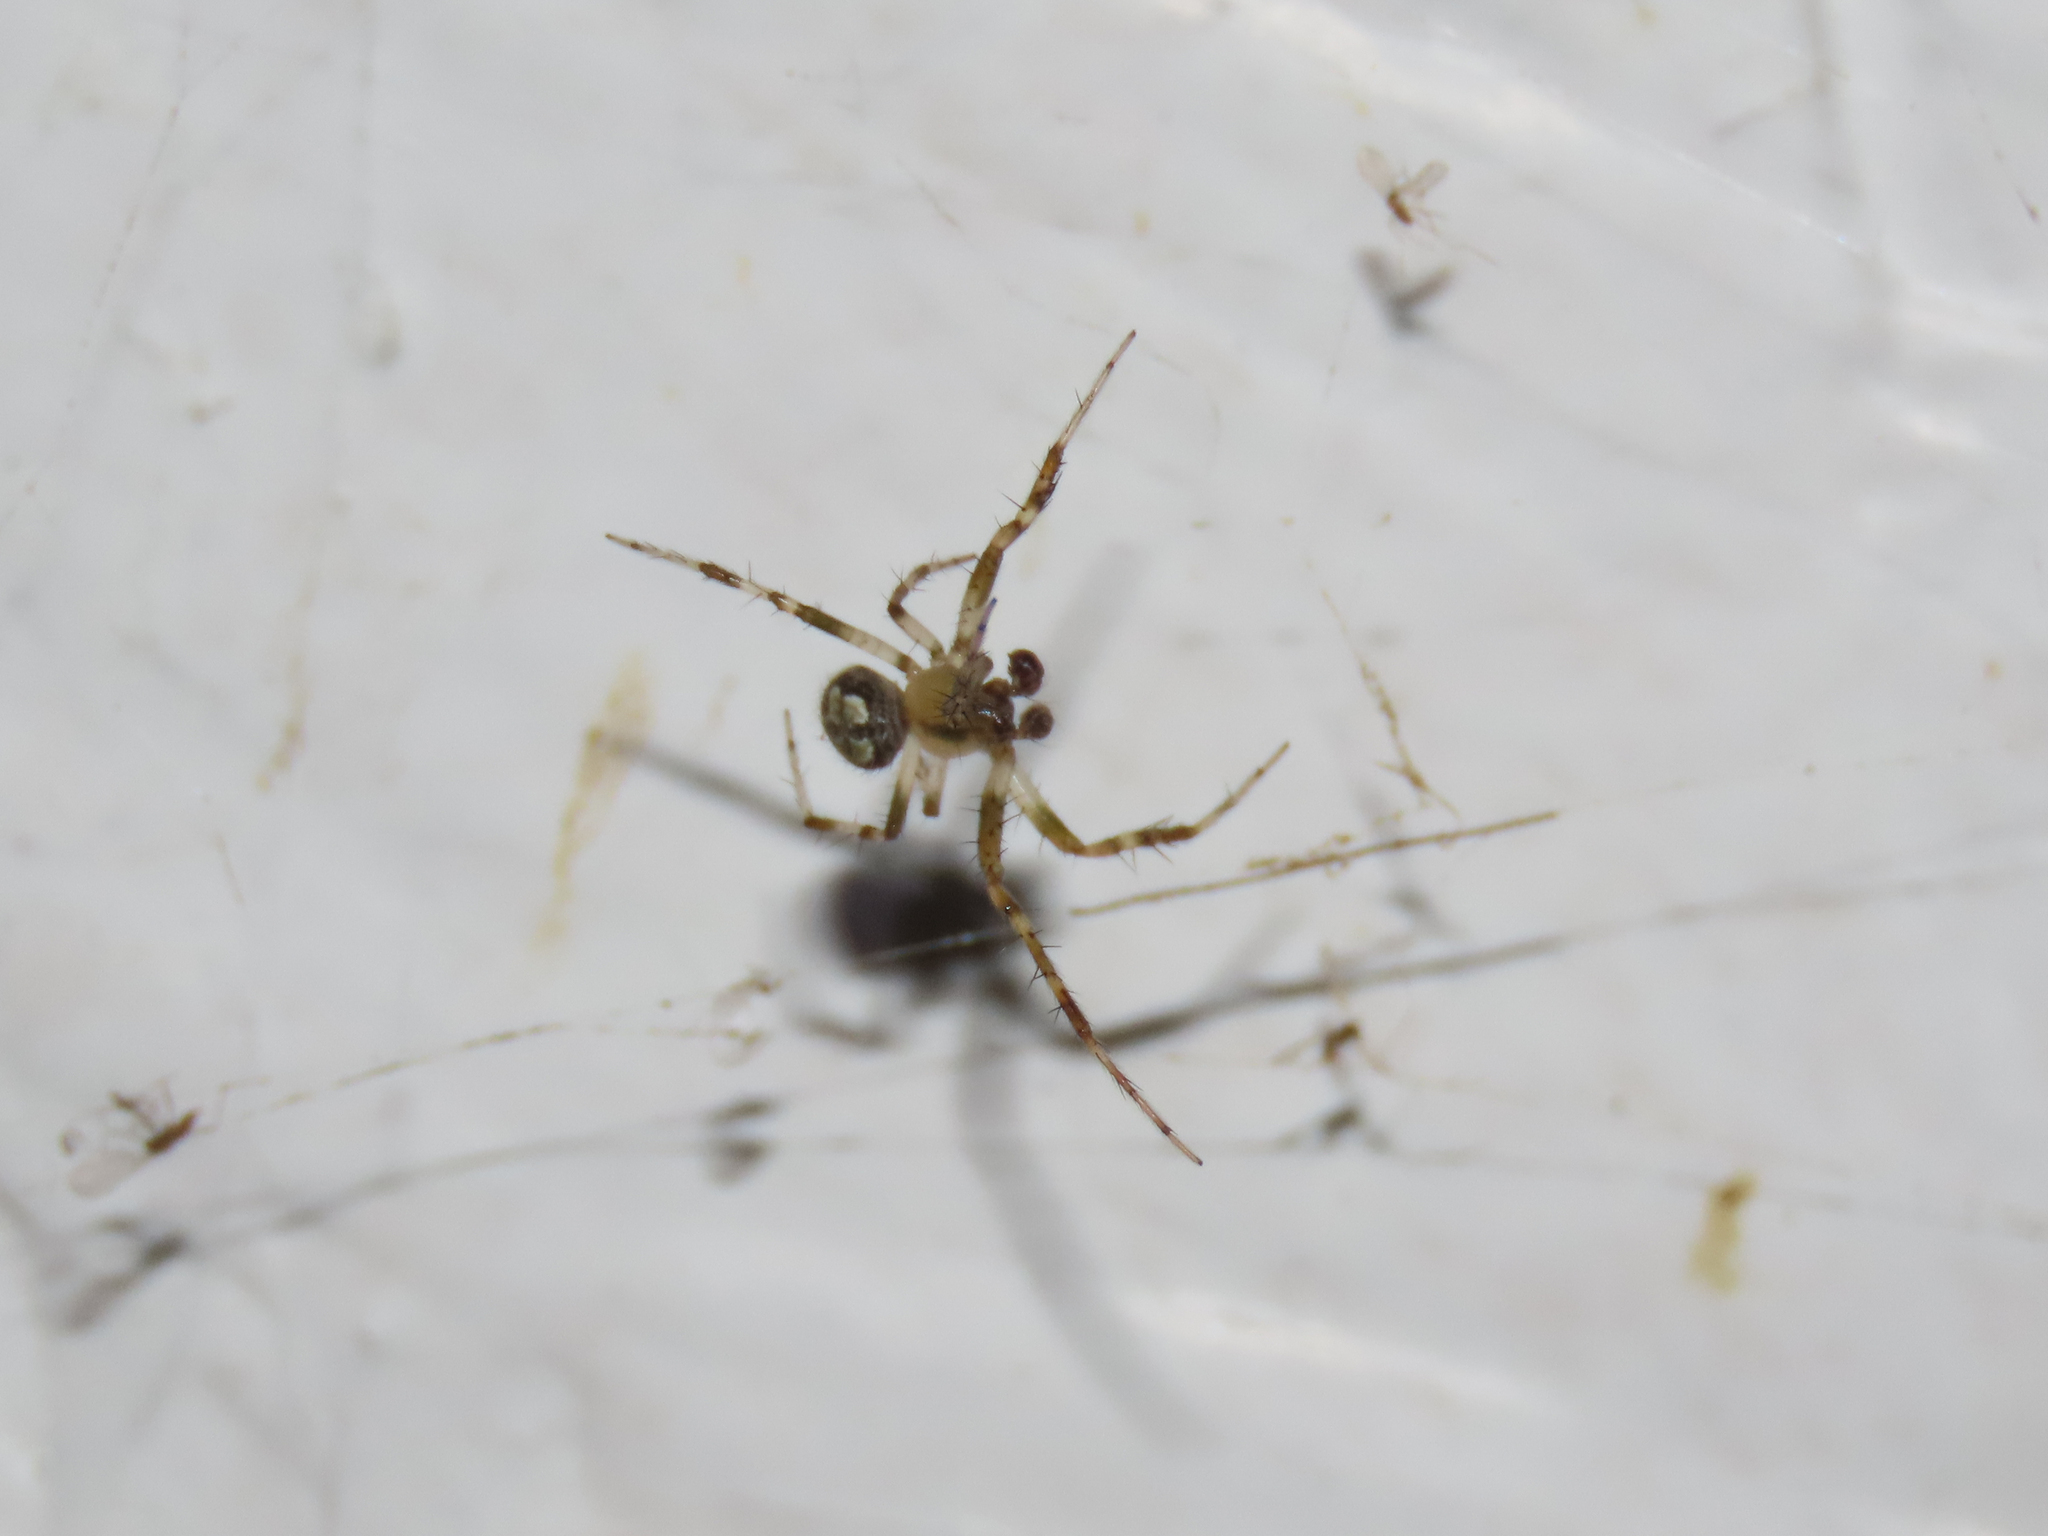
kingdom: Animalia
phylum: Arthropoda
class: Arachnida
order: Araneae
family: Araneidae
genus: Araneus
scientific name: Araneus pegnia
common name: Orb weavers
